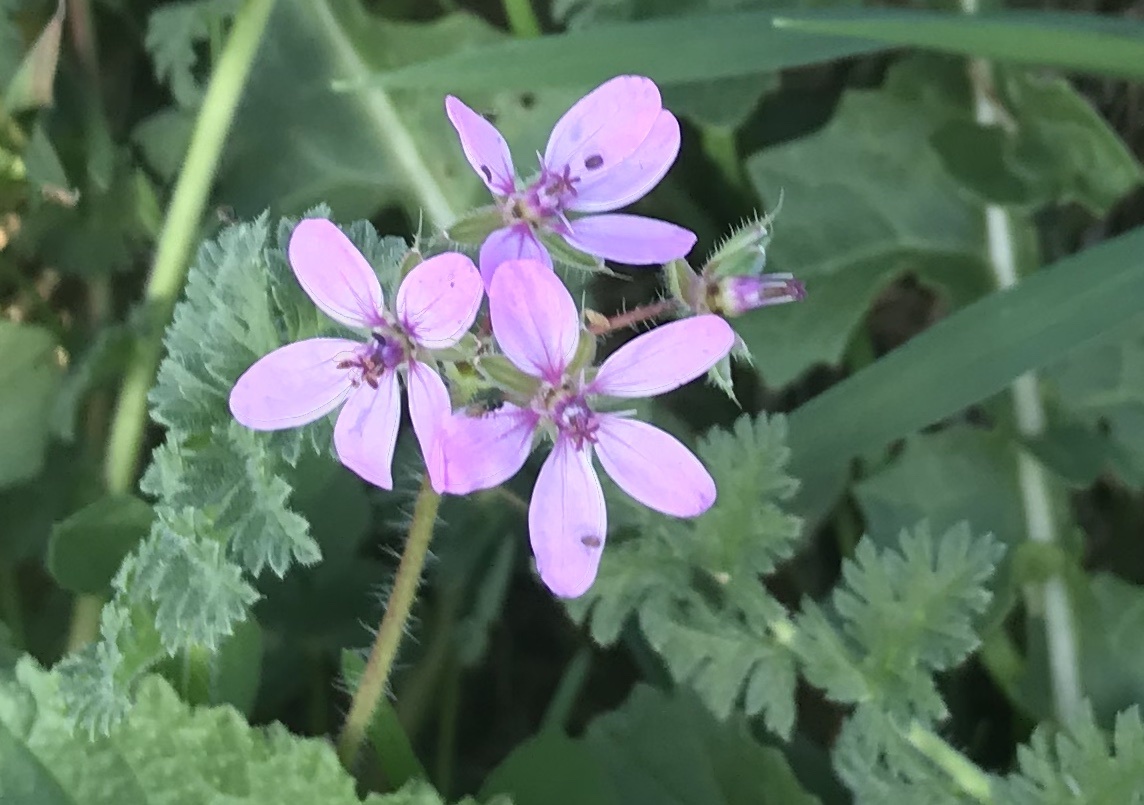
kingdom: Plantae
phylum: Tracheophyta
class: Magnoliopsida
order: Geraniales
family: Geraniaceae
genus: Erodium
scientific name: Erodium cicutarium
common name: Common stork's-bill
